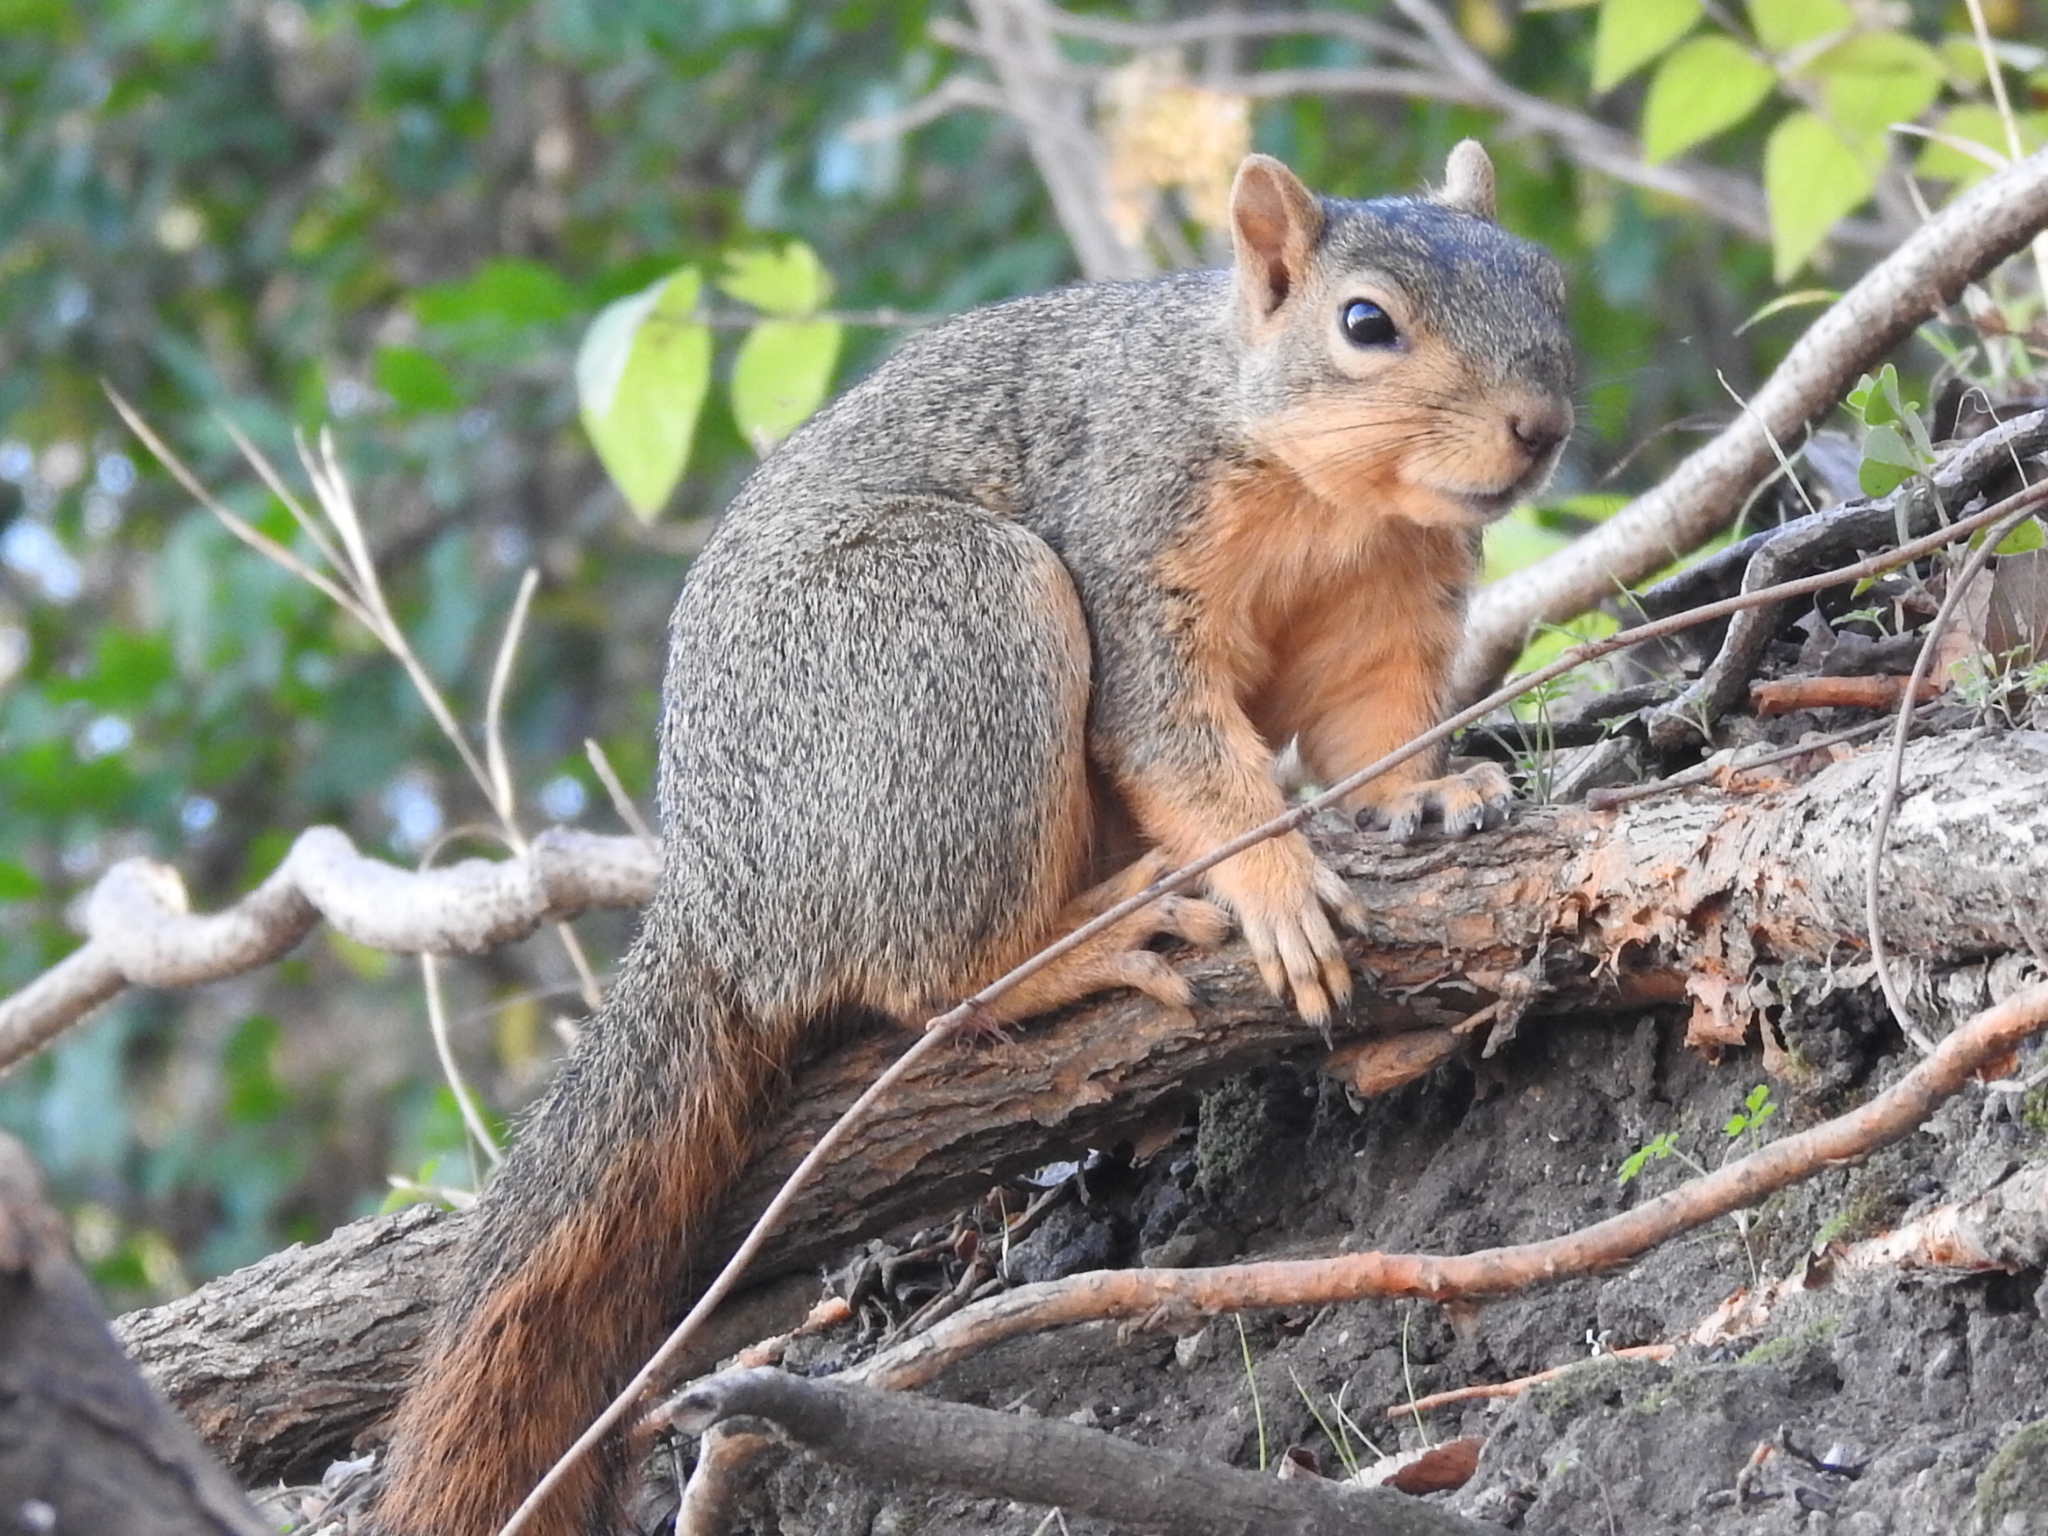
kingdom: Animalia
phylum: Chordata
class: Mammalia
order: Rodentia
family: Sciuridae
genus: Sciurus
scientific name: Sciurus niger
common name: Fox squirrel
